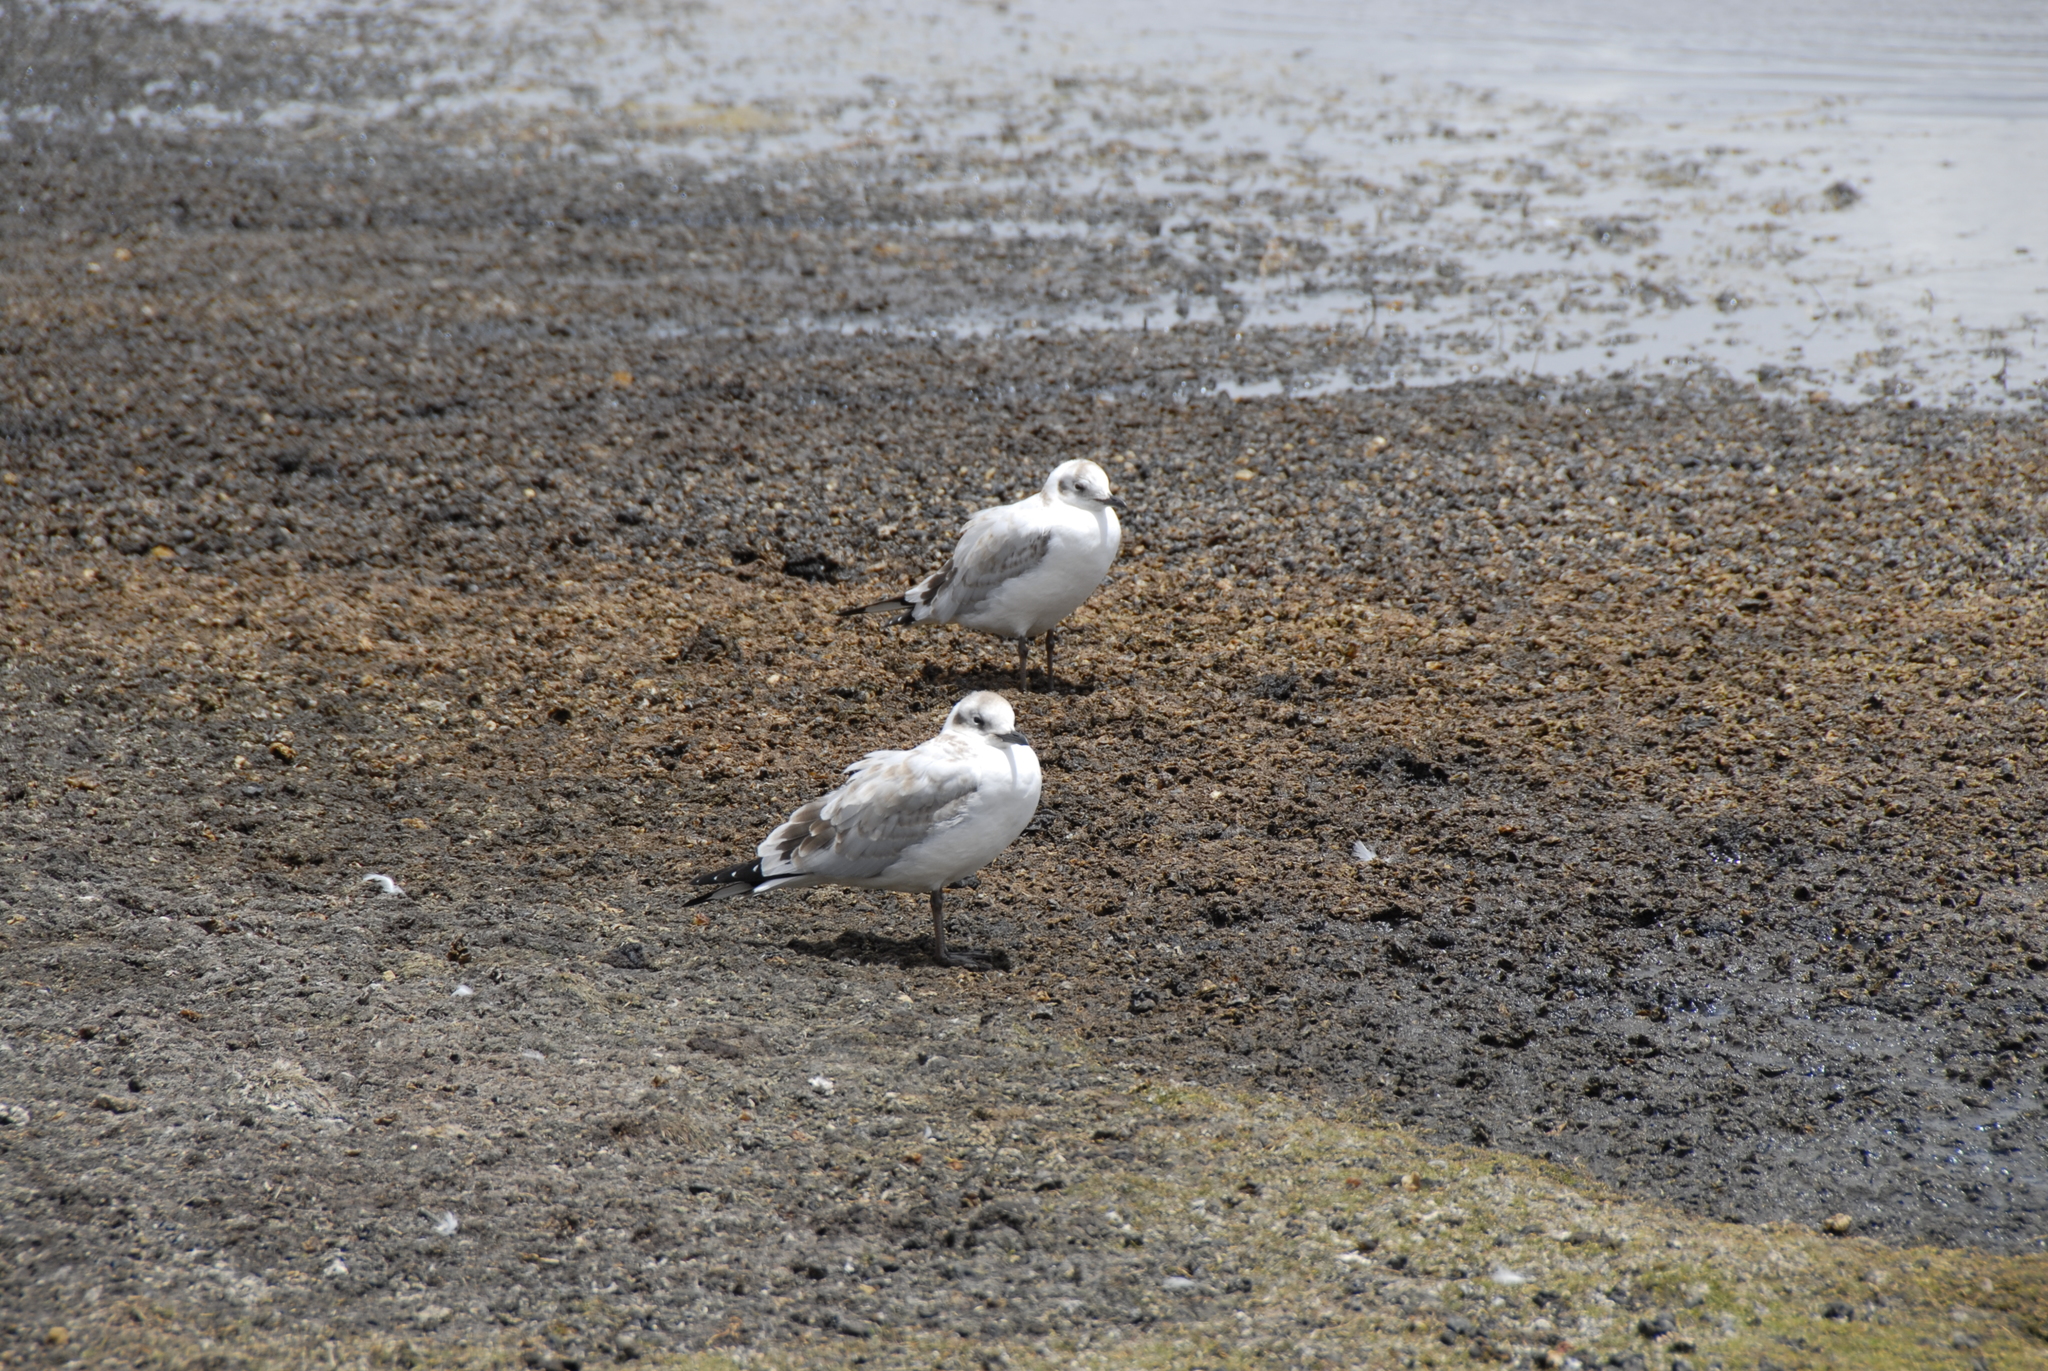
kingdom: Animalia
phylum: Chordata
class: Aves
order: Charadriiformes
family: Laridae
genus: Chroicocephalus
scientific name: Chroicocephalus serranus
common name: Andean gull
